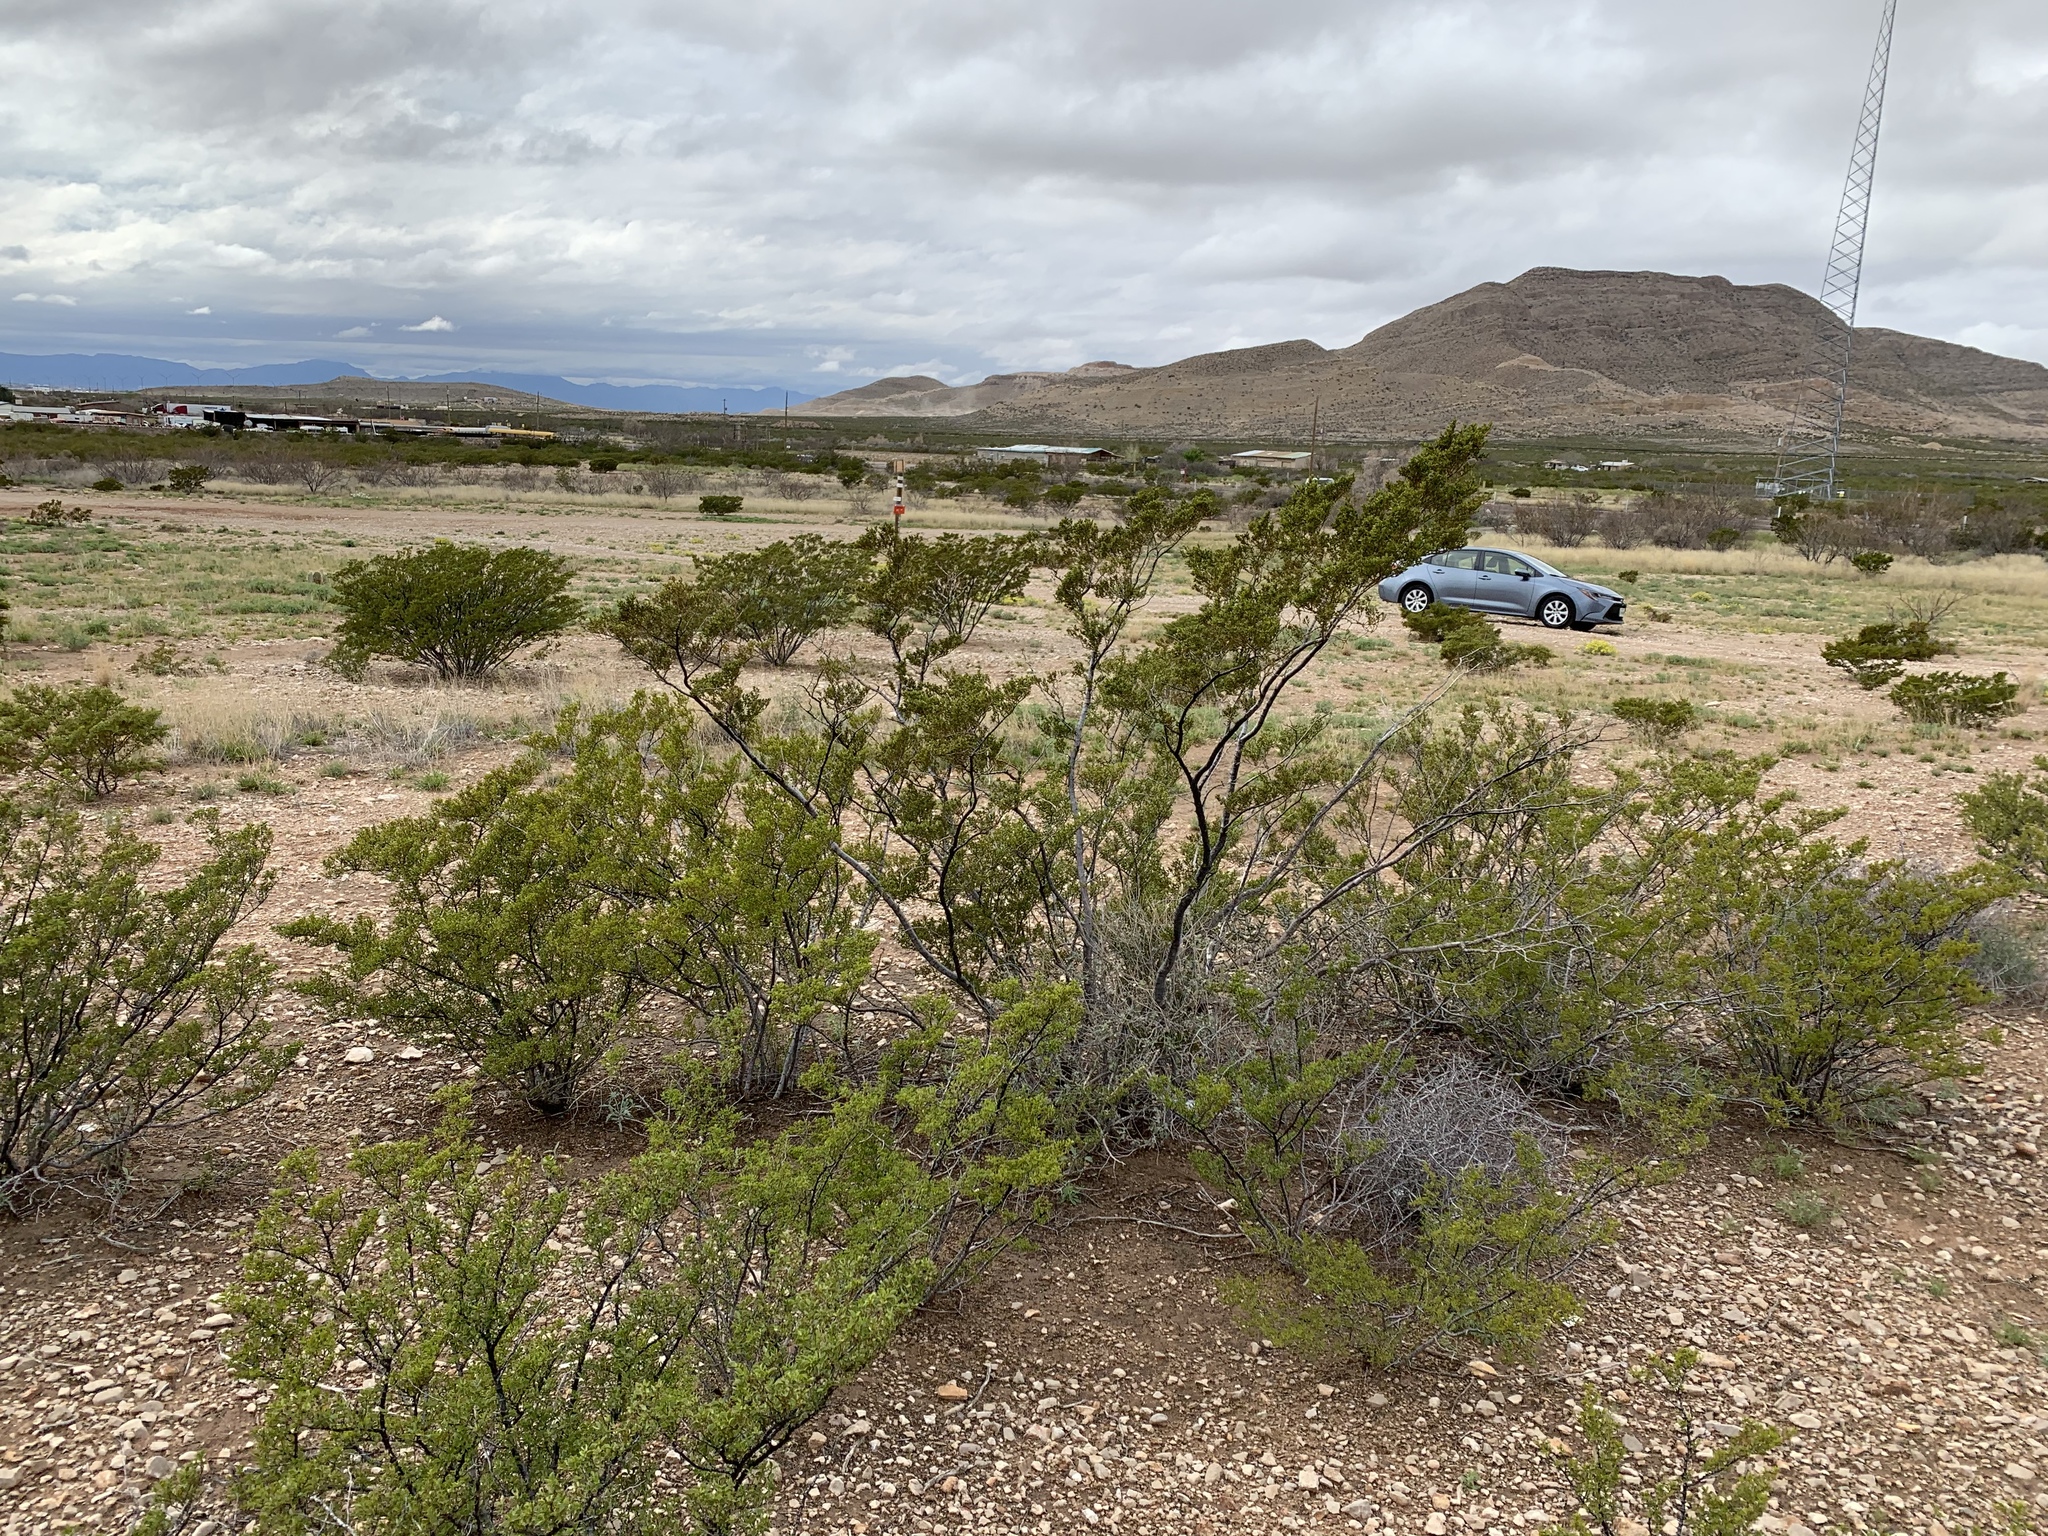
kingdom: Plantae
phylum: Tracheophyta
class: Magnoliopsida
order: Zygophyllales
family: Zygophyllaceae
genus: Larrea
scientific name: Larrea tridentata
